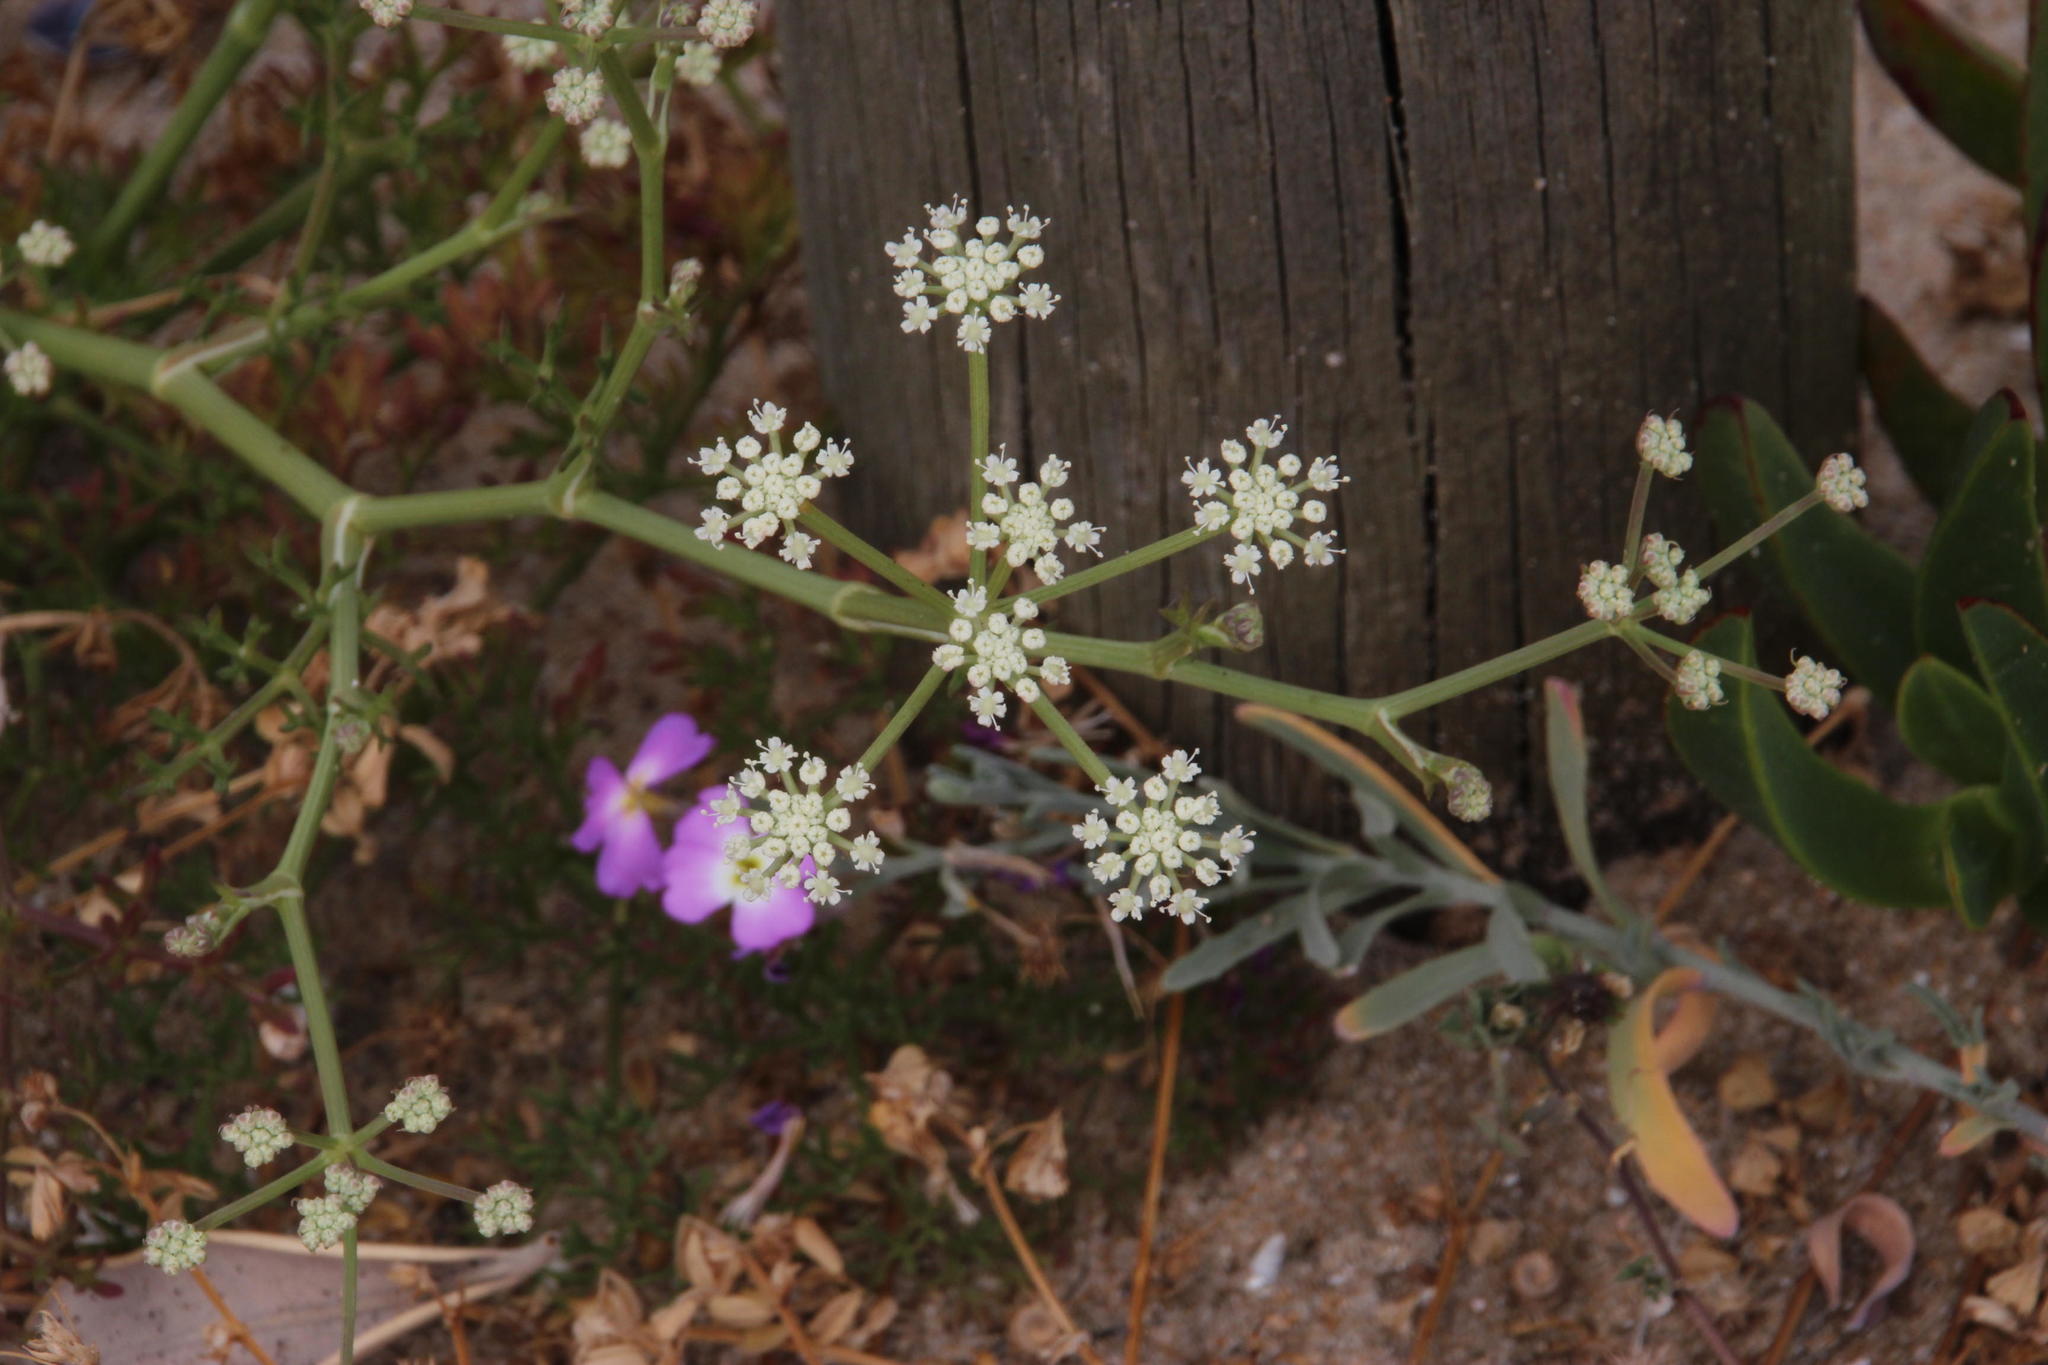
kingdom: Plantae
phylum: Tracheophyta
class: Magnoliopsida
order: Apiales
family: Apiaceae
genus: Seseli
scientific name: Seseli tortuosum
